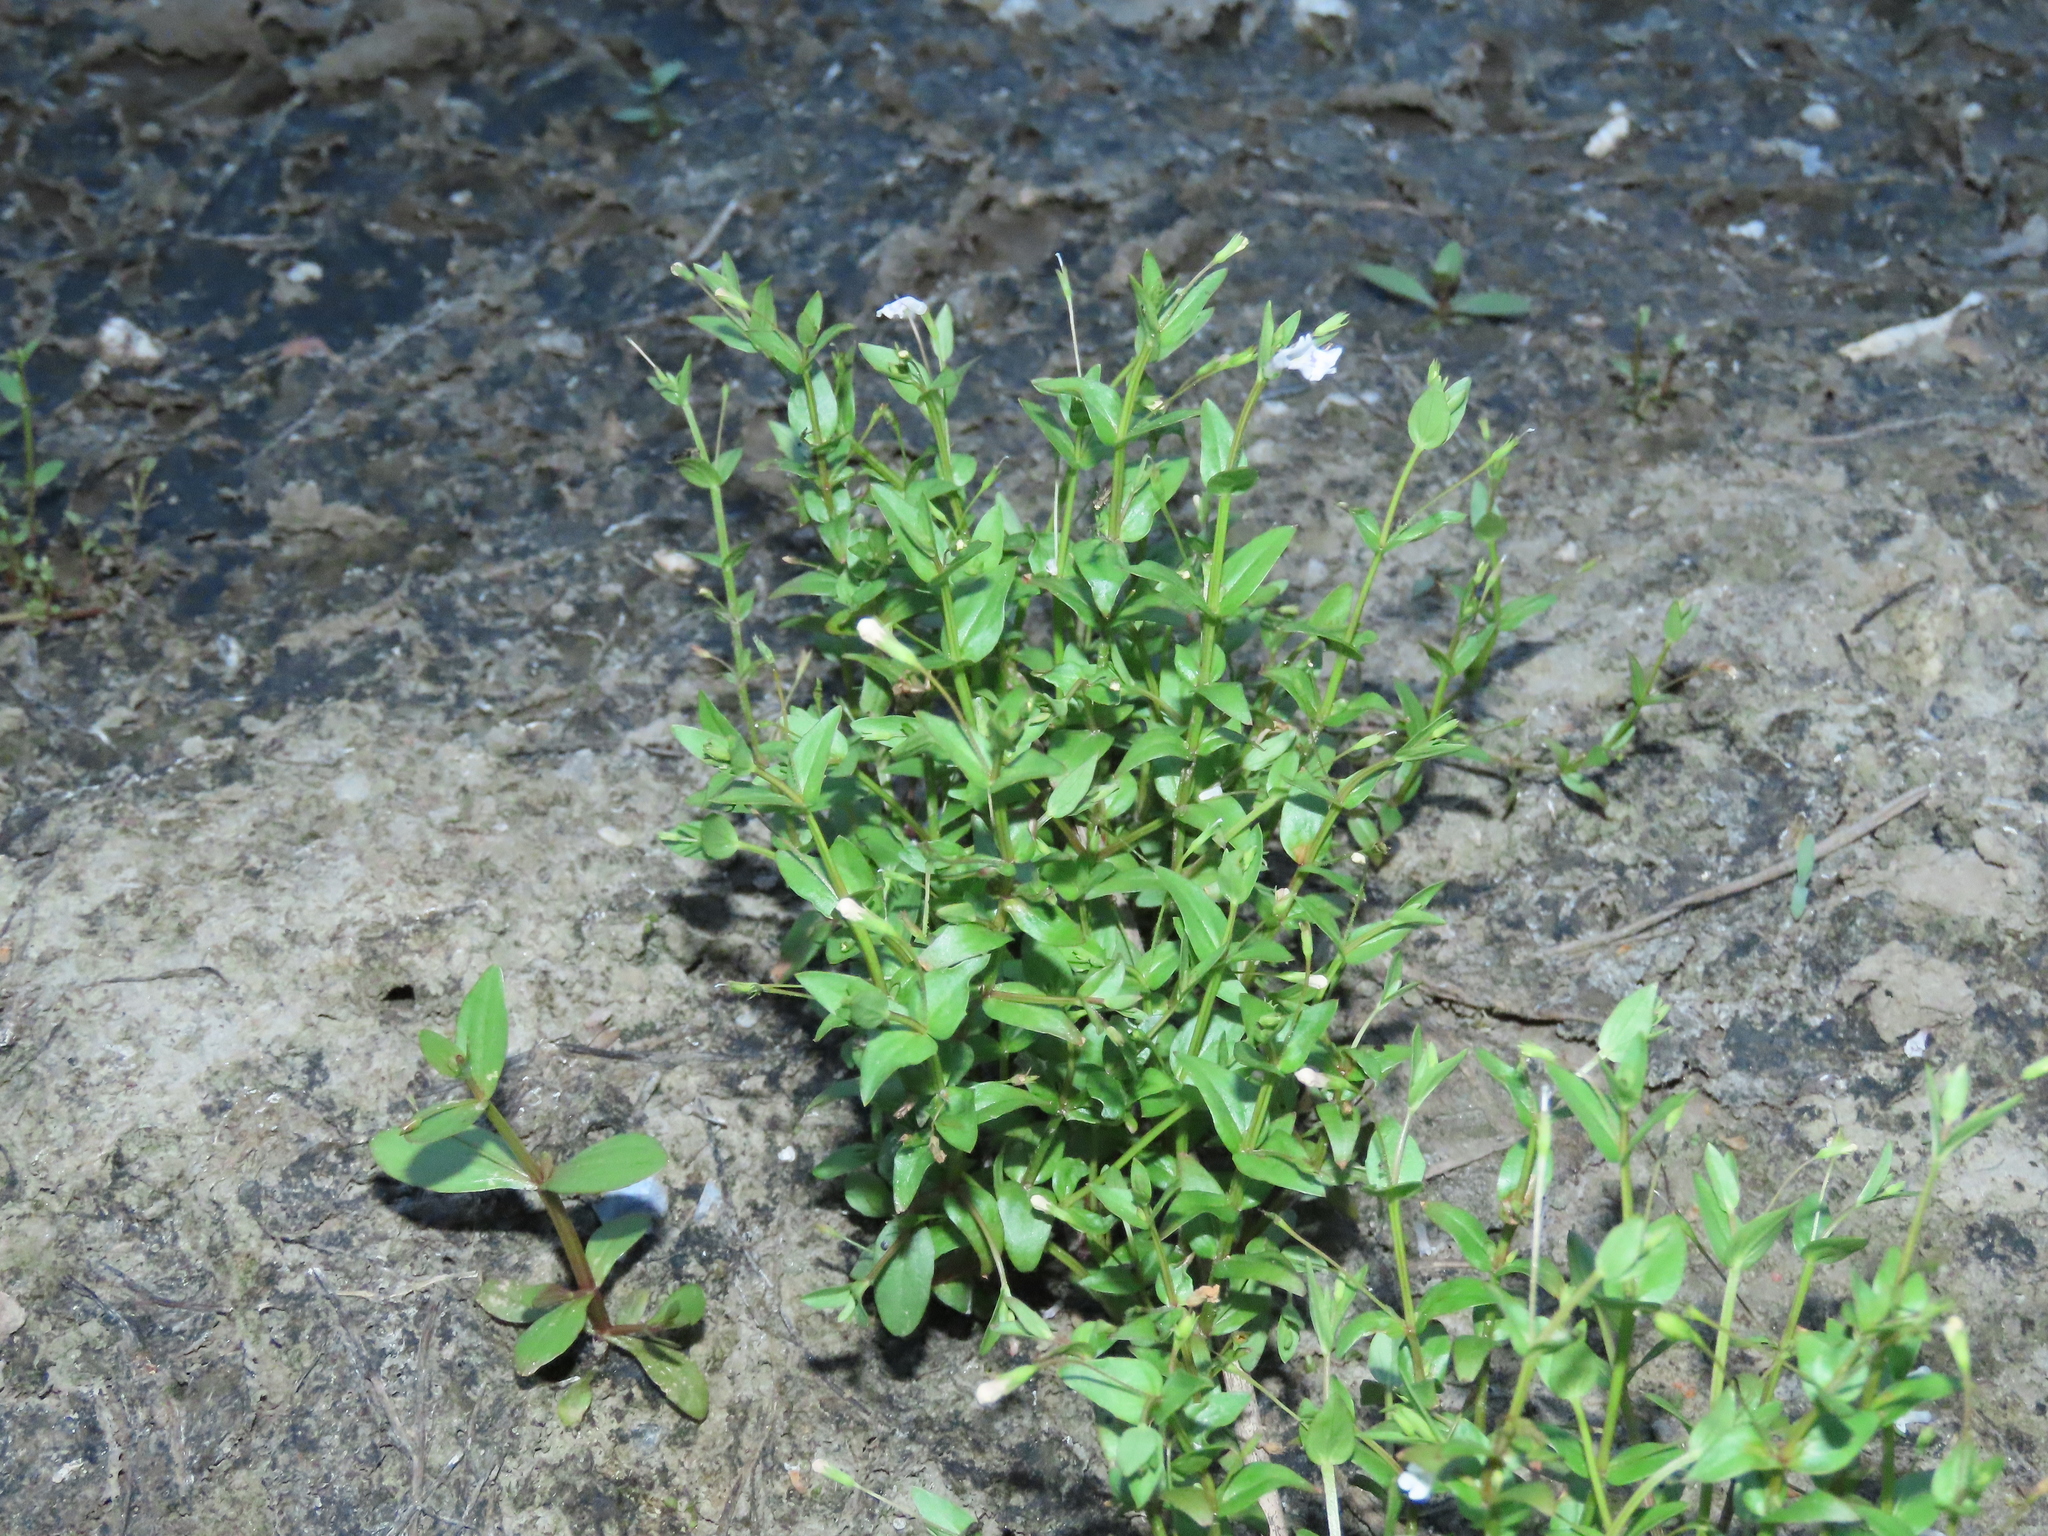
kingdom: Plantae
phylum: Tracheophyta
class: Magnoliopsida
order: Lamiales
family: Linderniaceae
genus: Lindernia
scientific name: Lindernia dubia
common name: Annual false pimpernel
